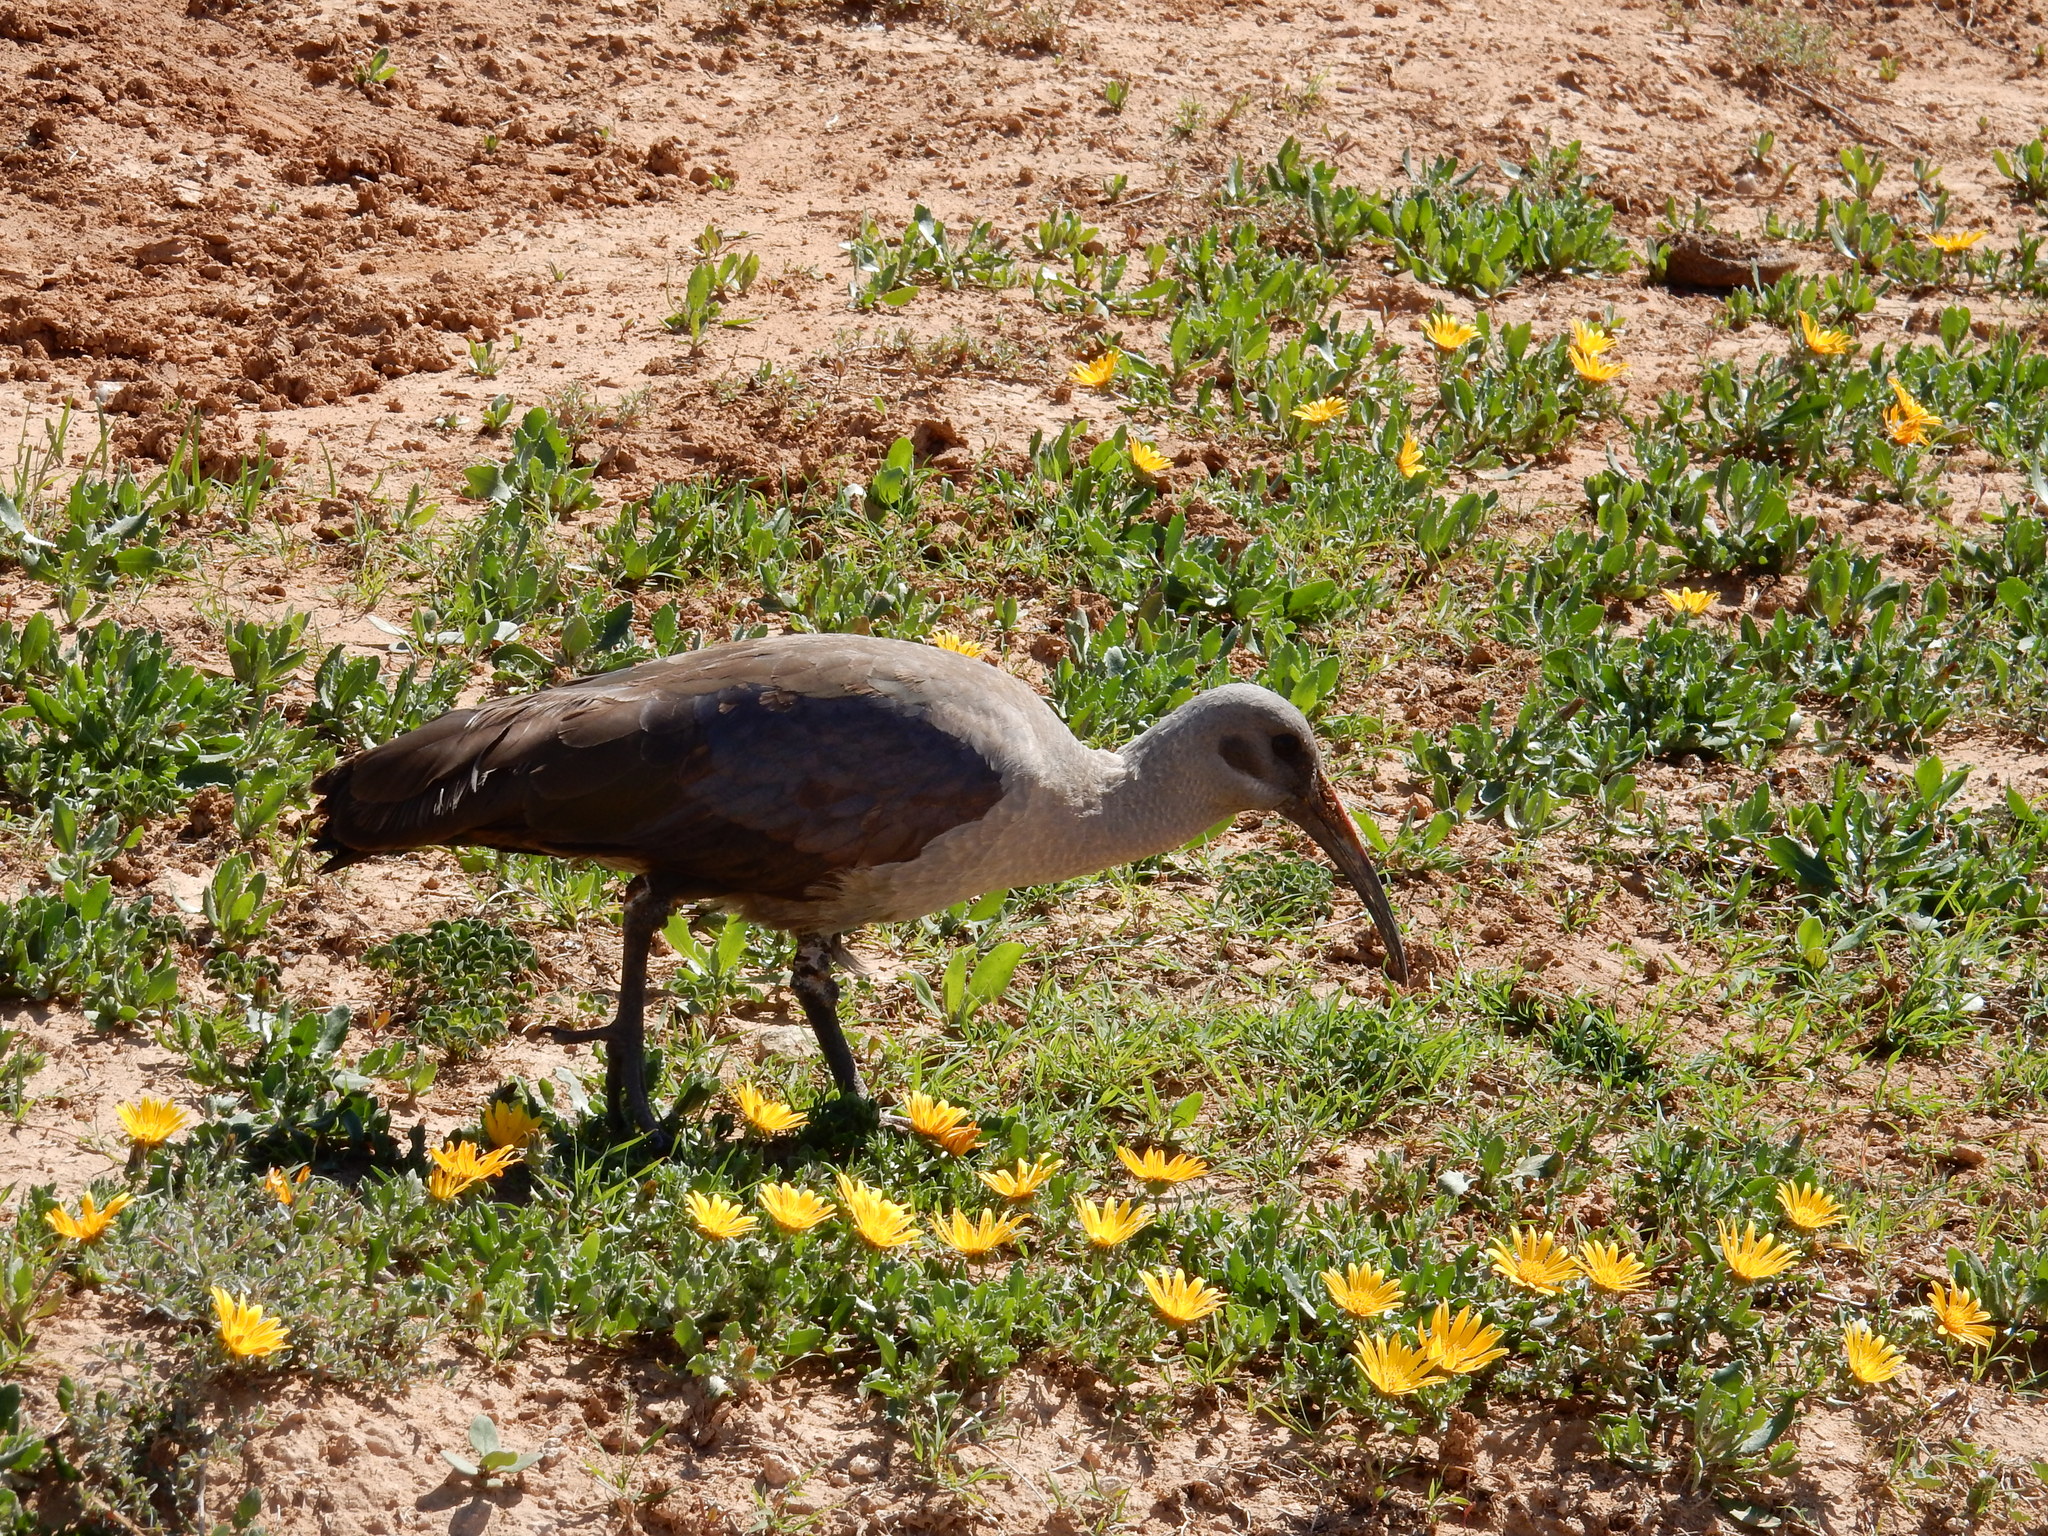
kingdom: Animalia
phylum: Chordata
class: Aves
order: Pelecaniformes
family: Threskiornithidae
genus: Bostrychia
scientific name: Bostrychia hagedash
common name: Hadada ibis
